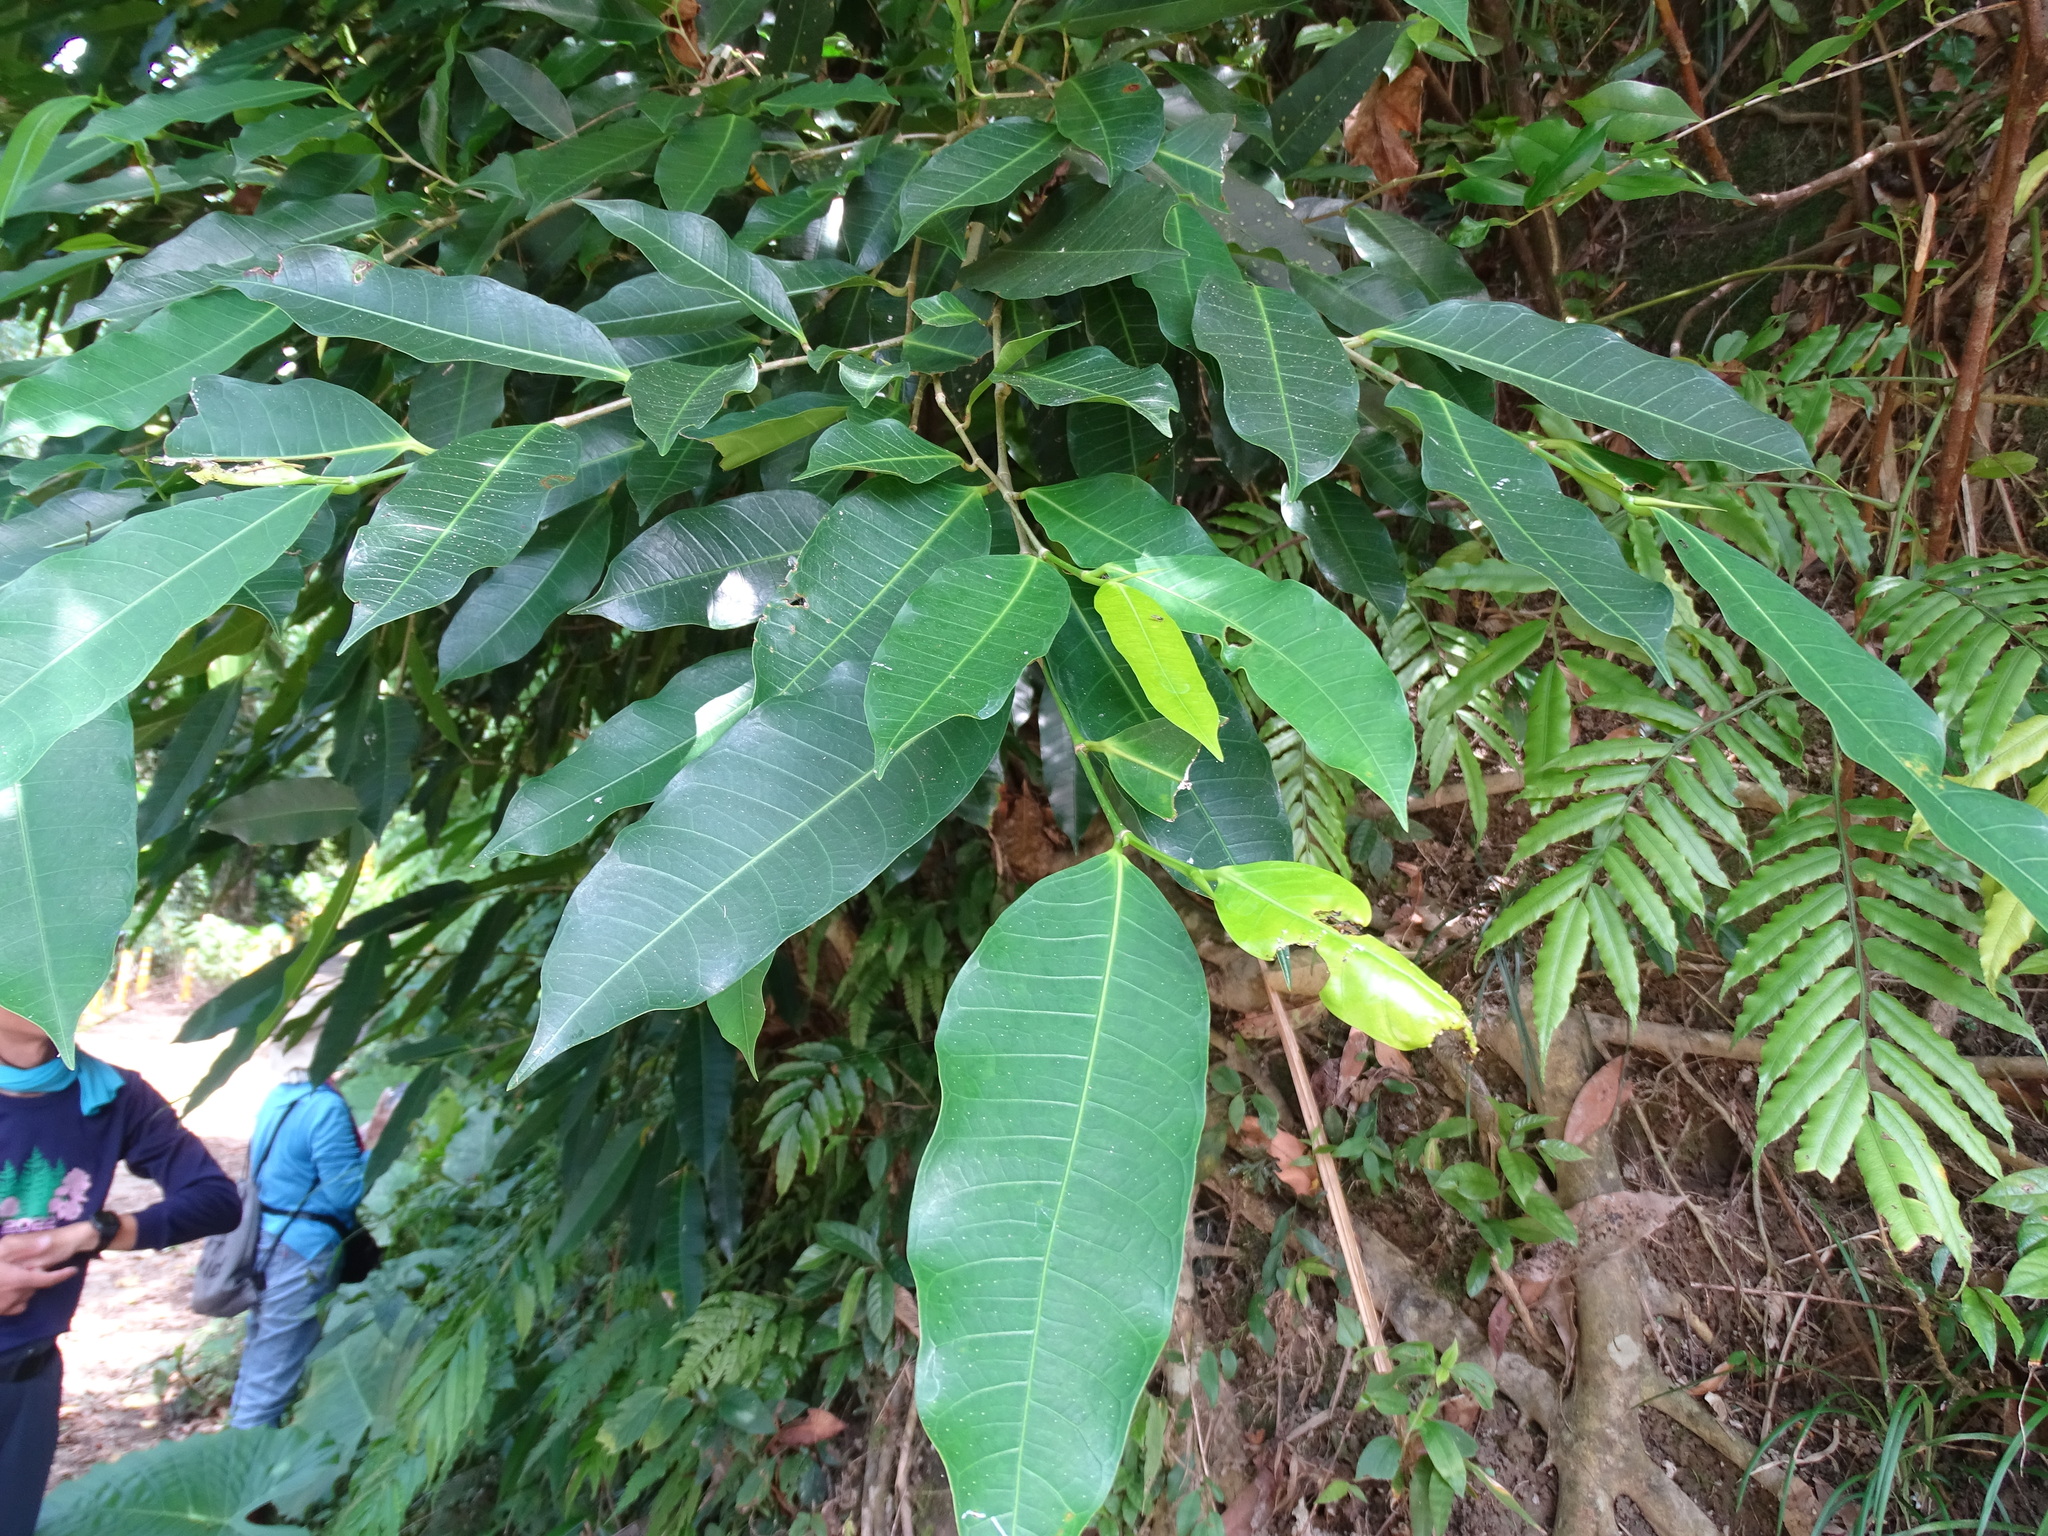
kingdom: Plantae
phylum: Tracheophyta
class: Magnoliopsida
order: Rosales
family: Moraceae
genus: Ficus
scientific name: Ficus virgata
